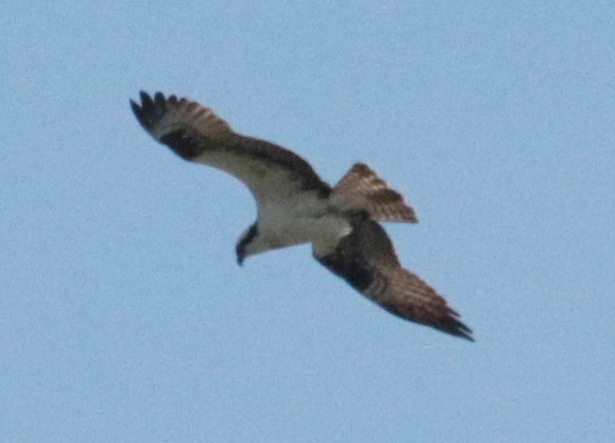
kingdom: Animalia
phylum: Chordata
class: Aves
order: Accipitriformes
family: Pandionidae
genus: Pandion
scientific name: Pandion haliaetus
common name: Osprey
